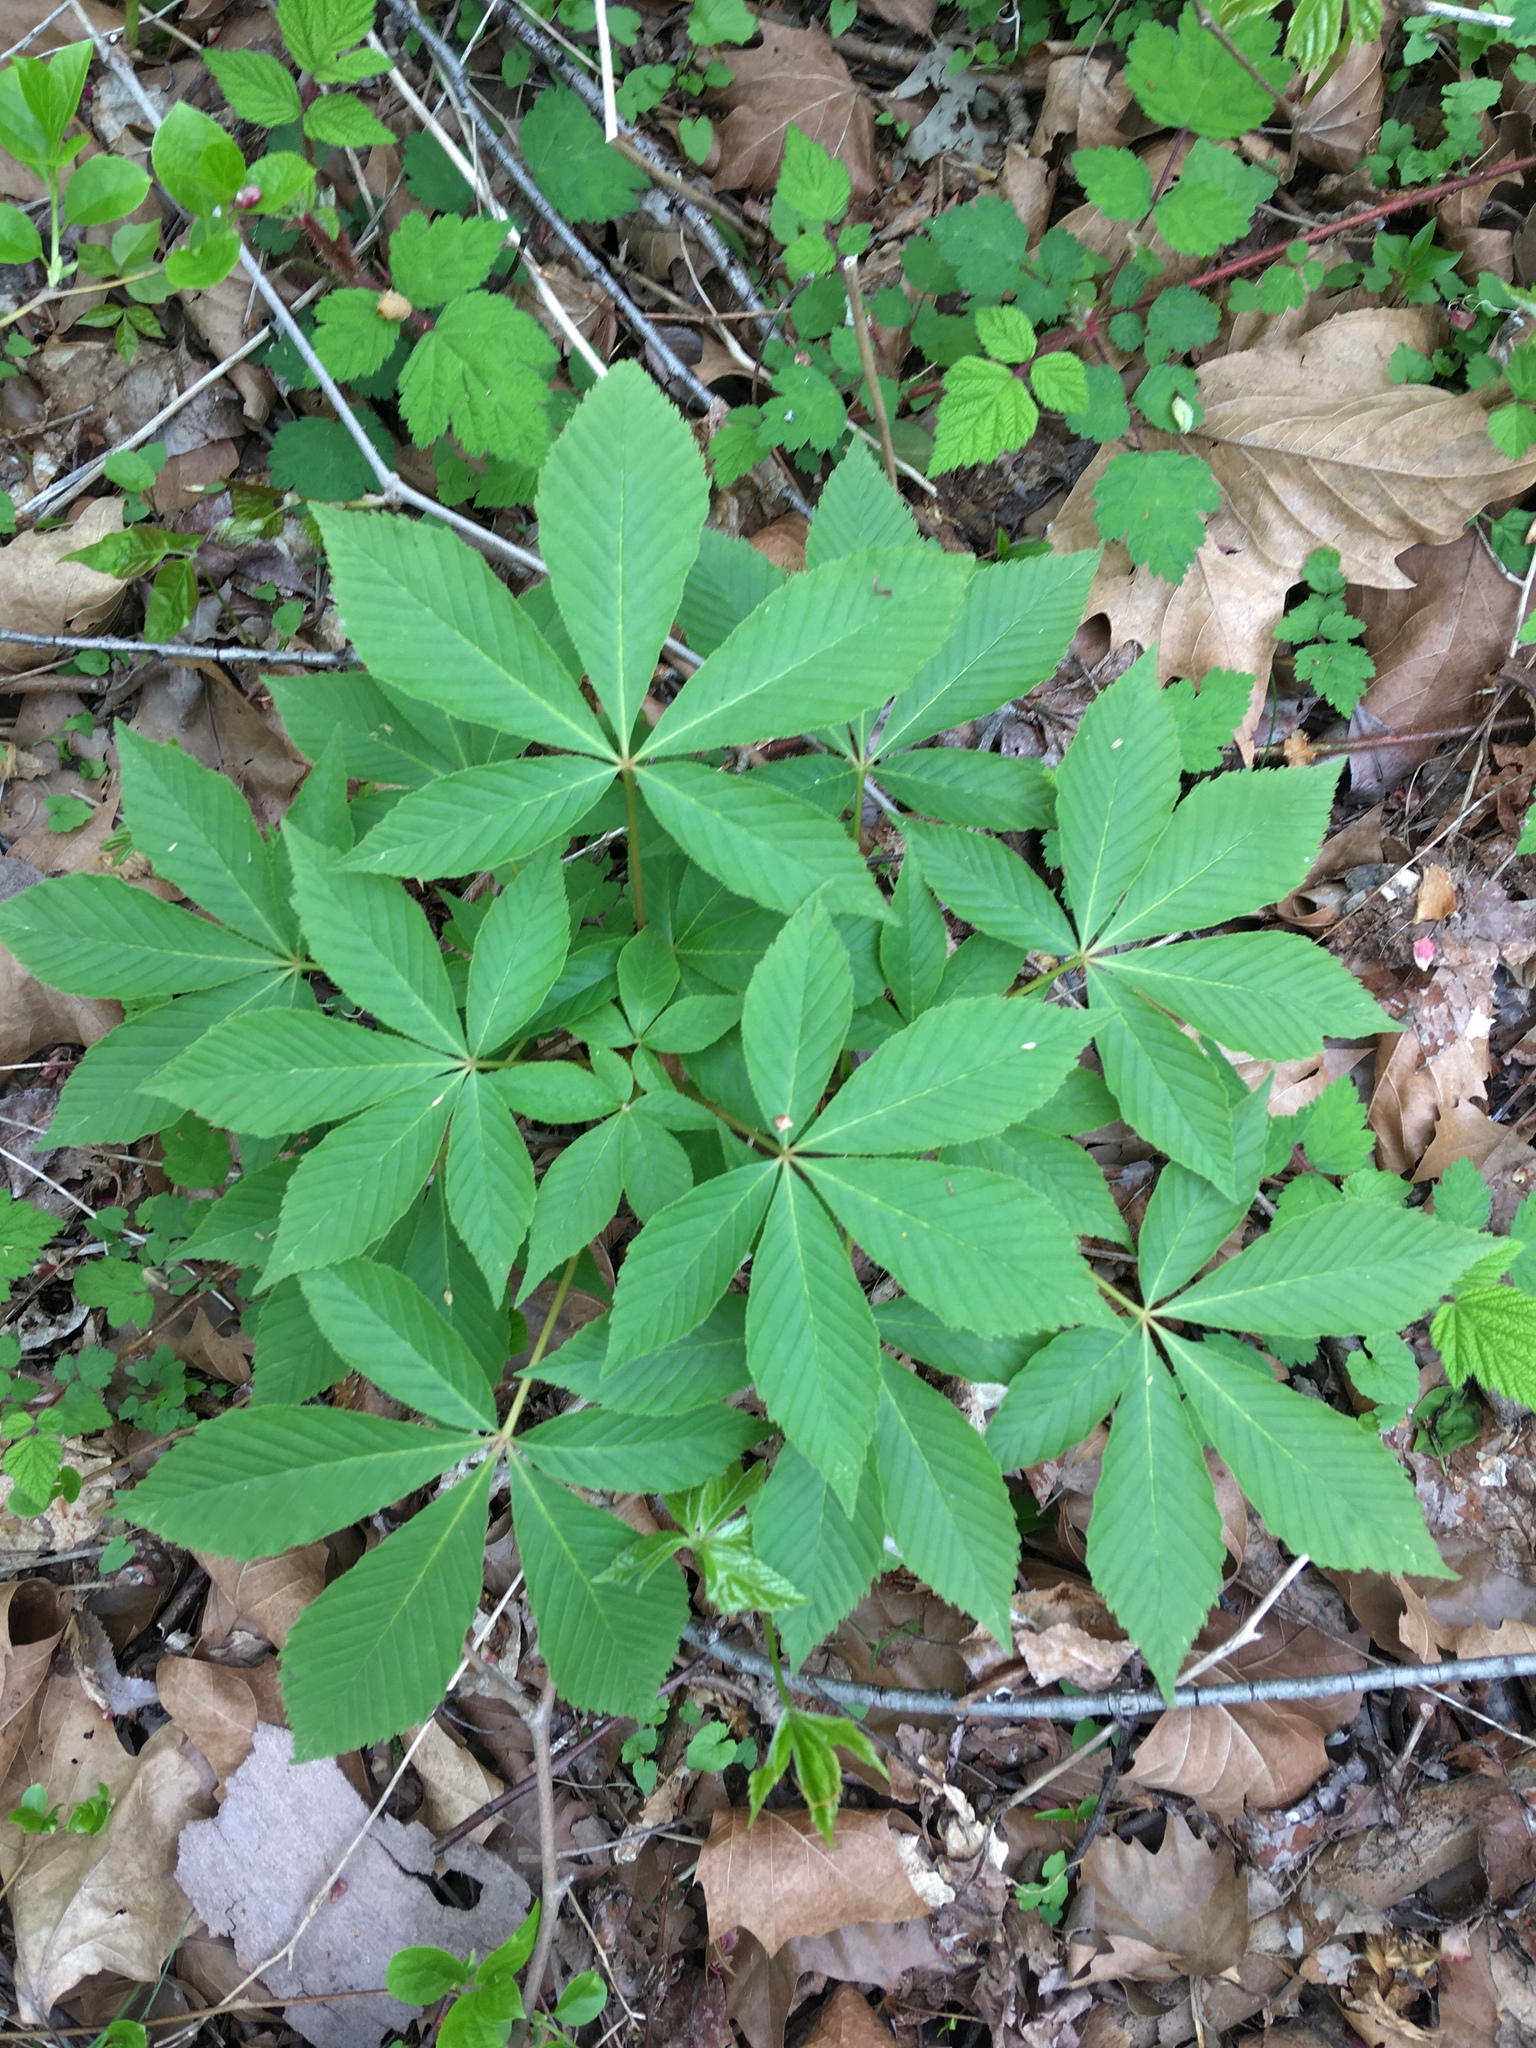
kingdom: Plantae
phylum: Tracheophyta
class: Magnoliopsida
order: Sapindales
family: Sapindaceae
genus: Aesculus
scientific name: Aesculus glabra
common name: Ohio buckeye
